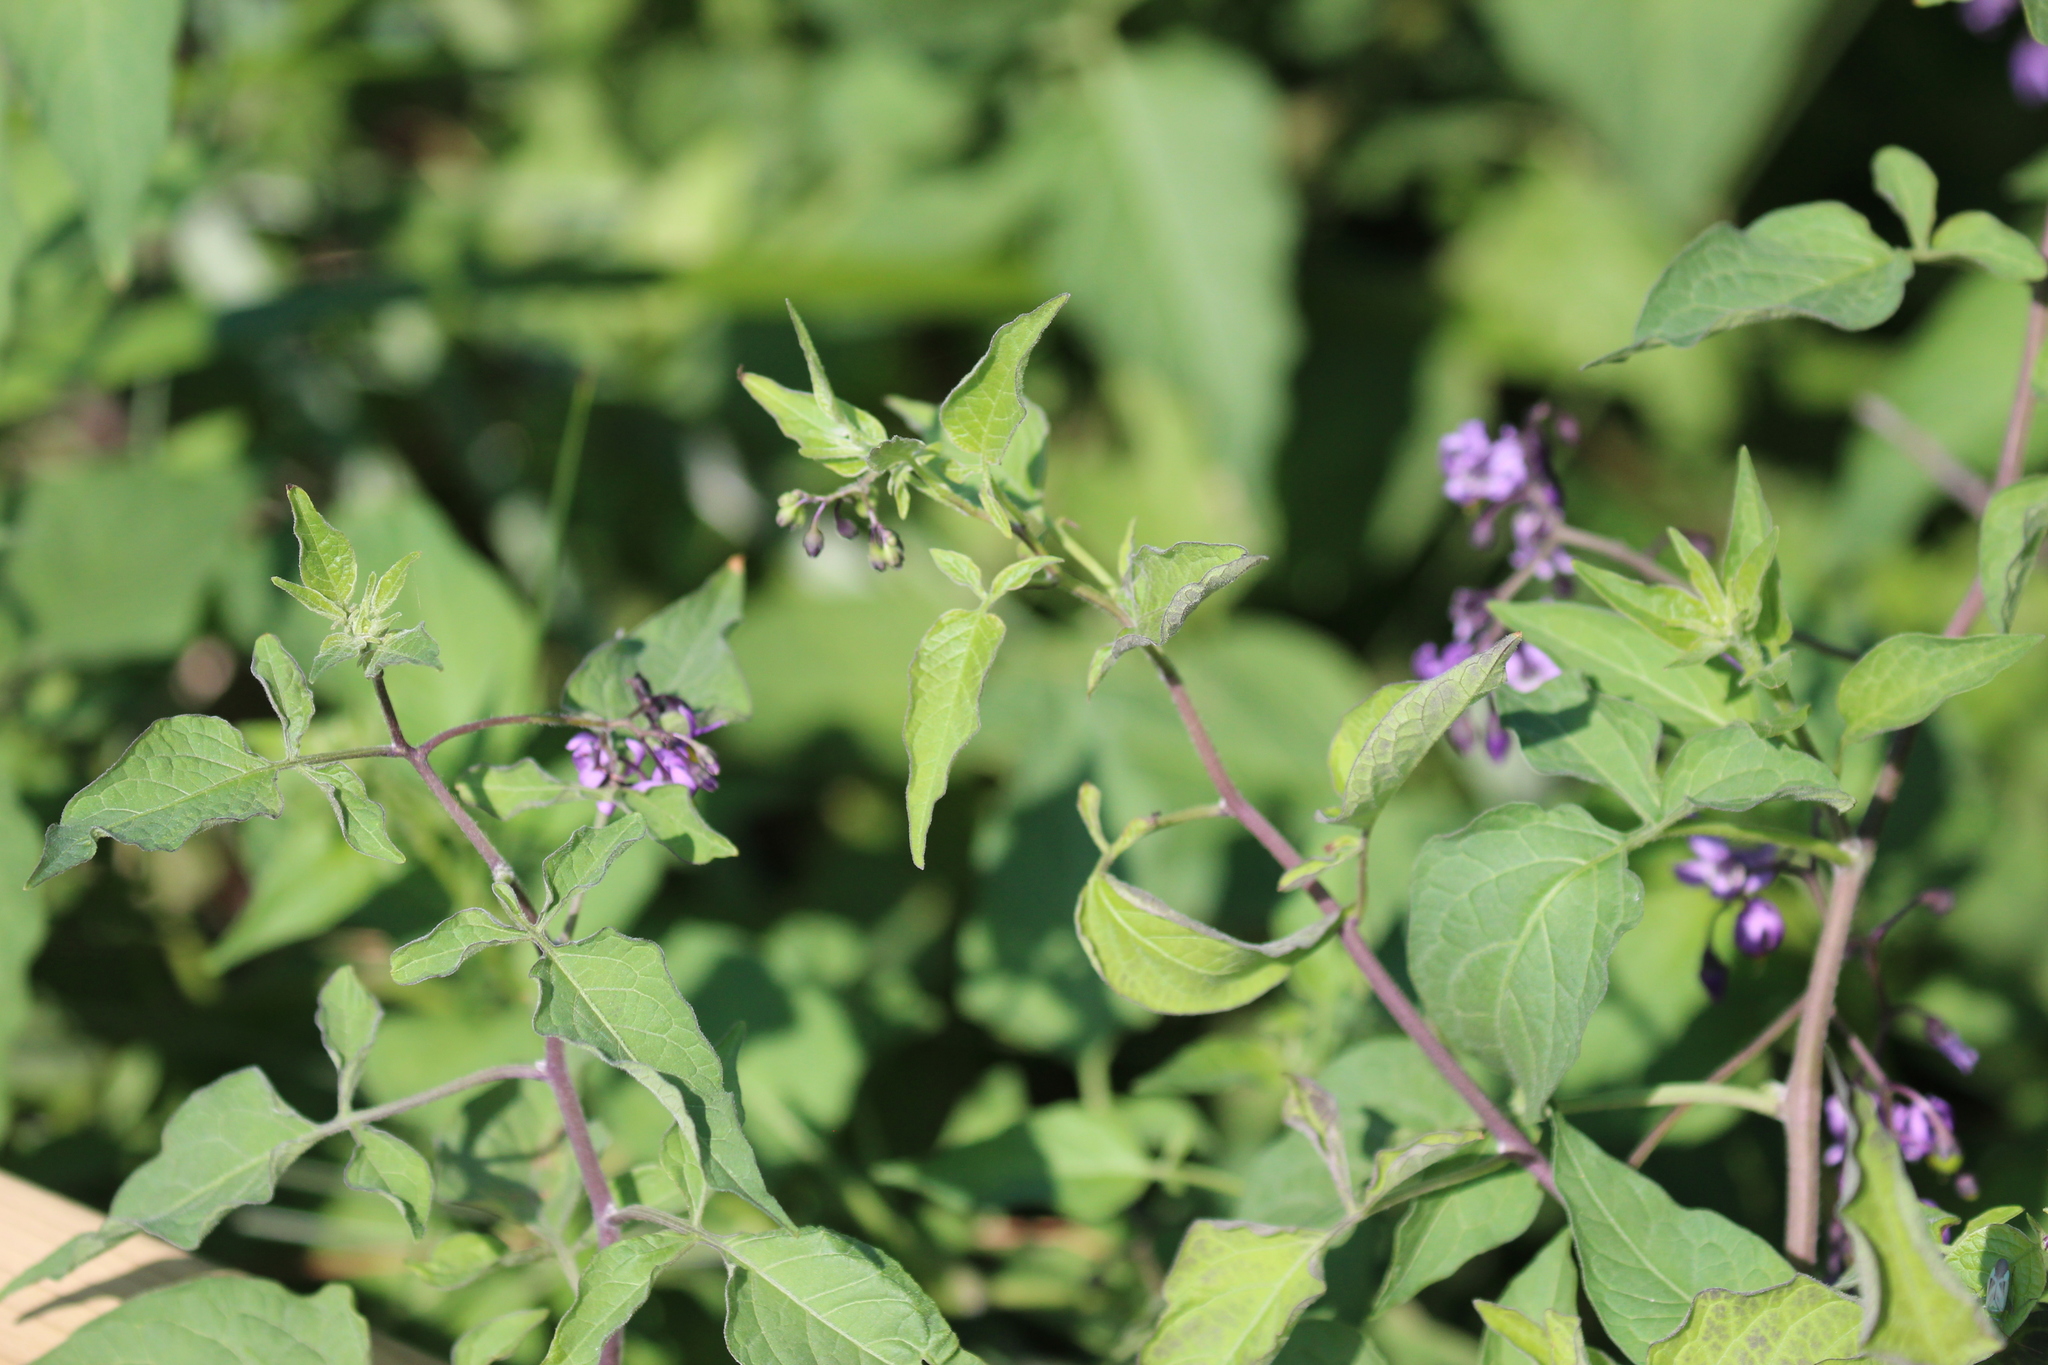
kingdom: Plantae
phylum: Tracheophyta
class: Magnoliopsida
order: Solanales
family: Solanaceae
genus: Solanum
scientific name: Solanum dulcamara
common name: Climbing nightshade
